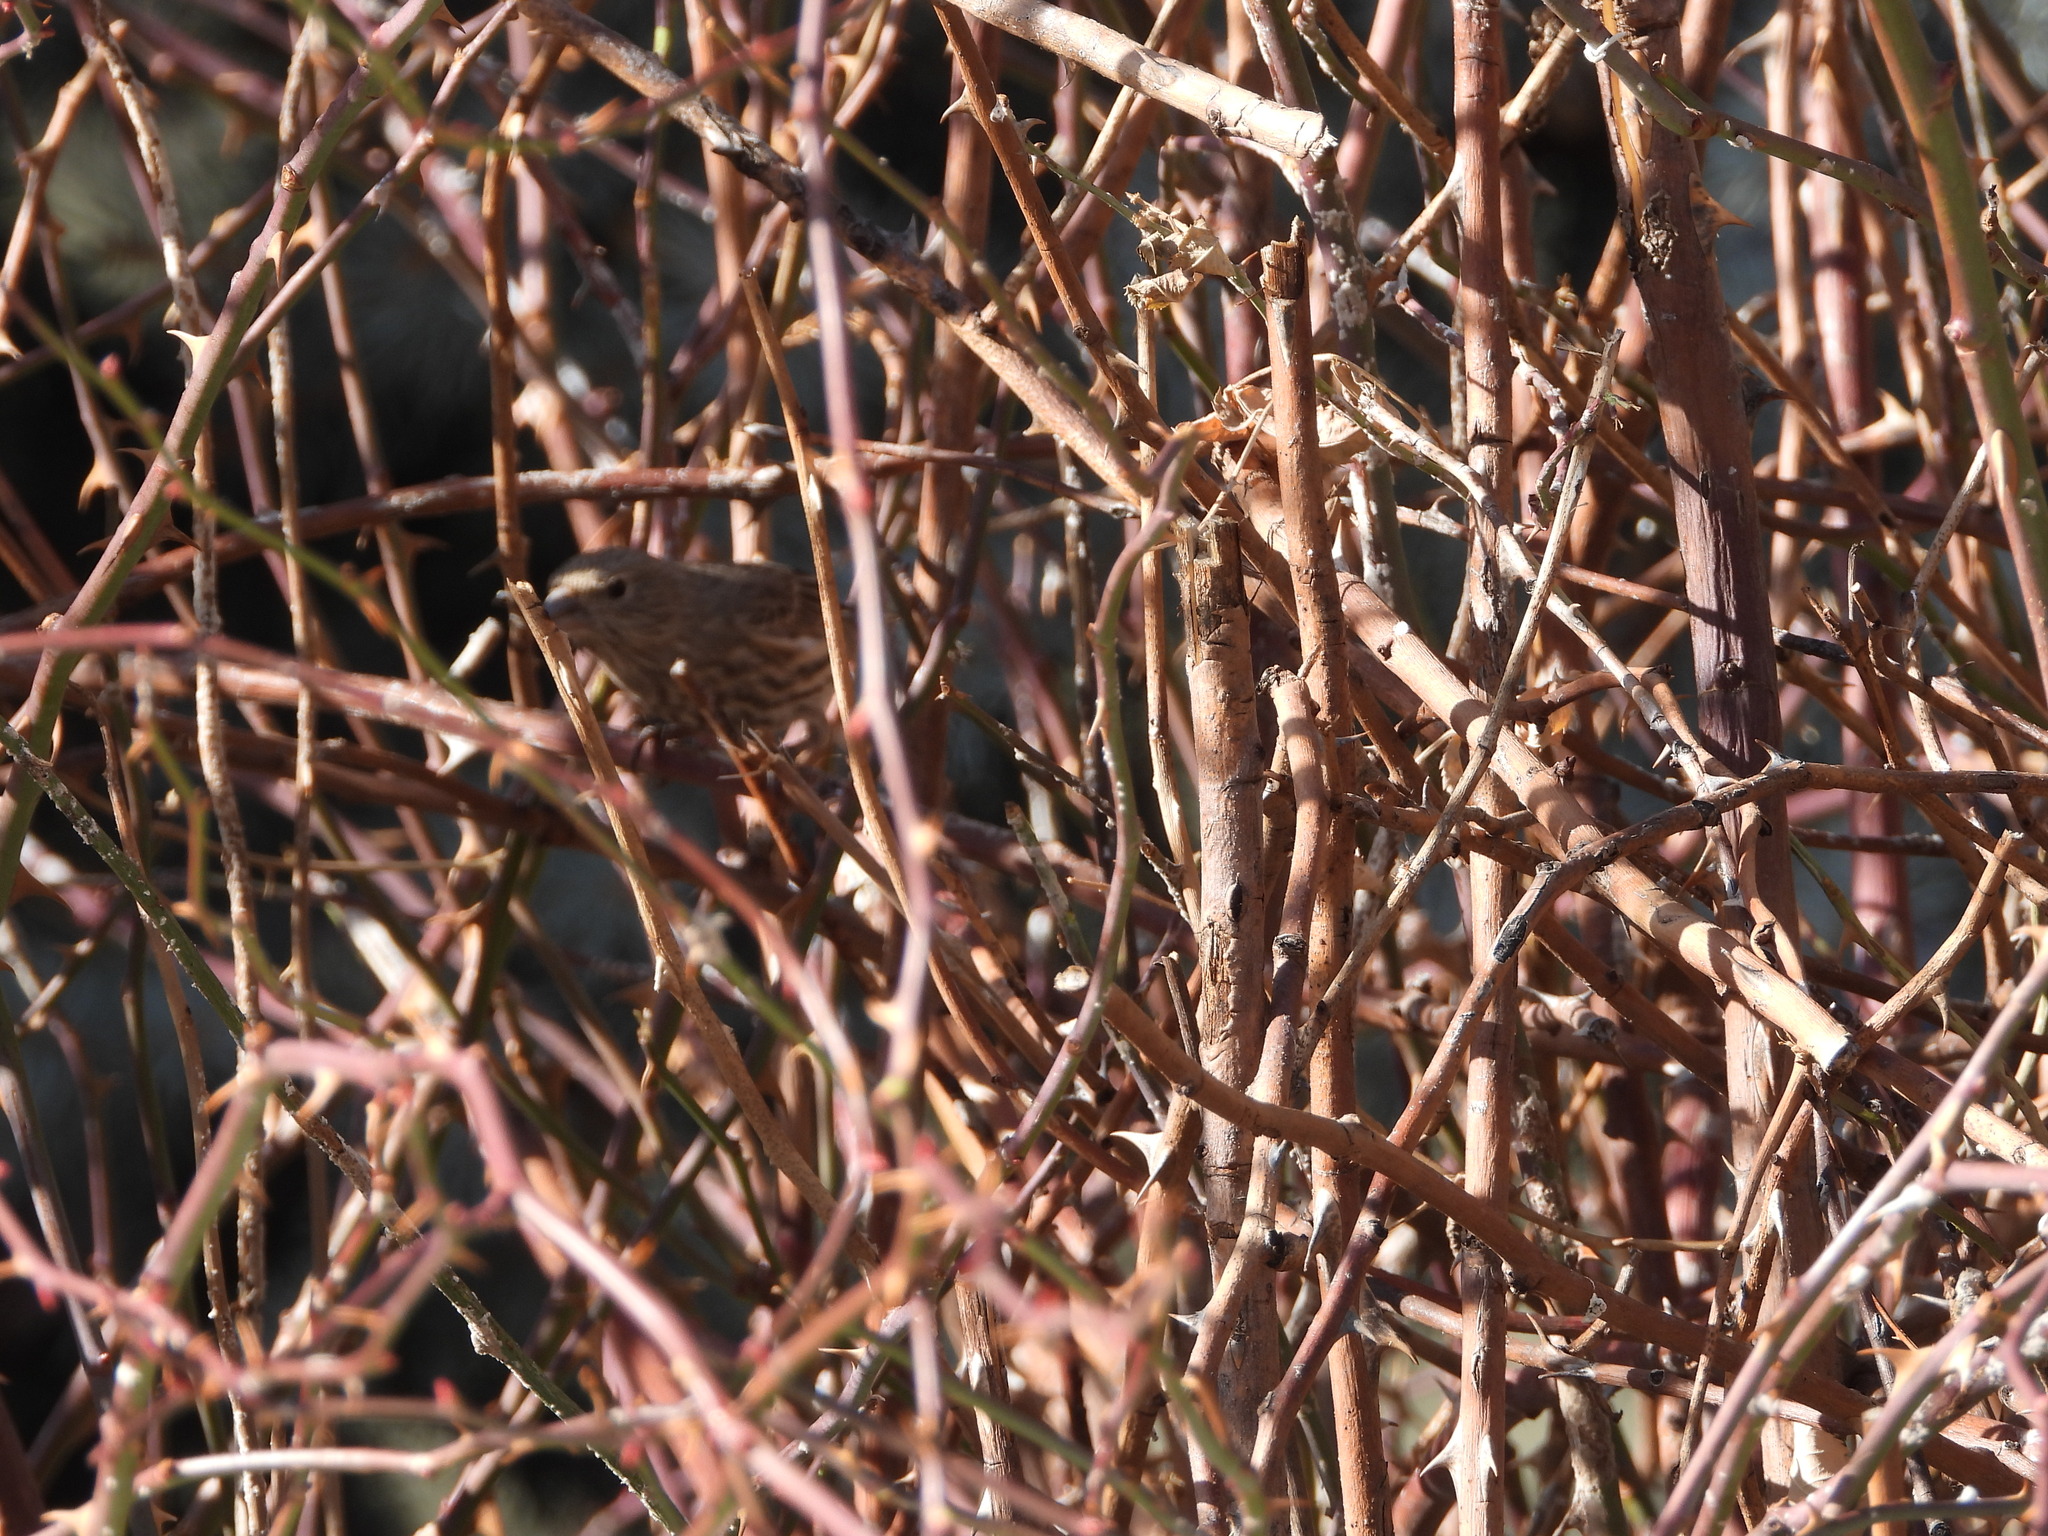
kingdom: Animalia
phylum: Chordata
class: Aves
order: Passeriformes
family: Fringillidae
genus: Haemorhous
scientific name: Haemorhous mexicanus
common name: House finch
